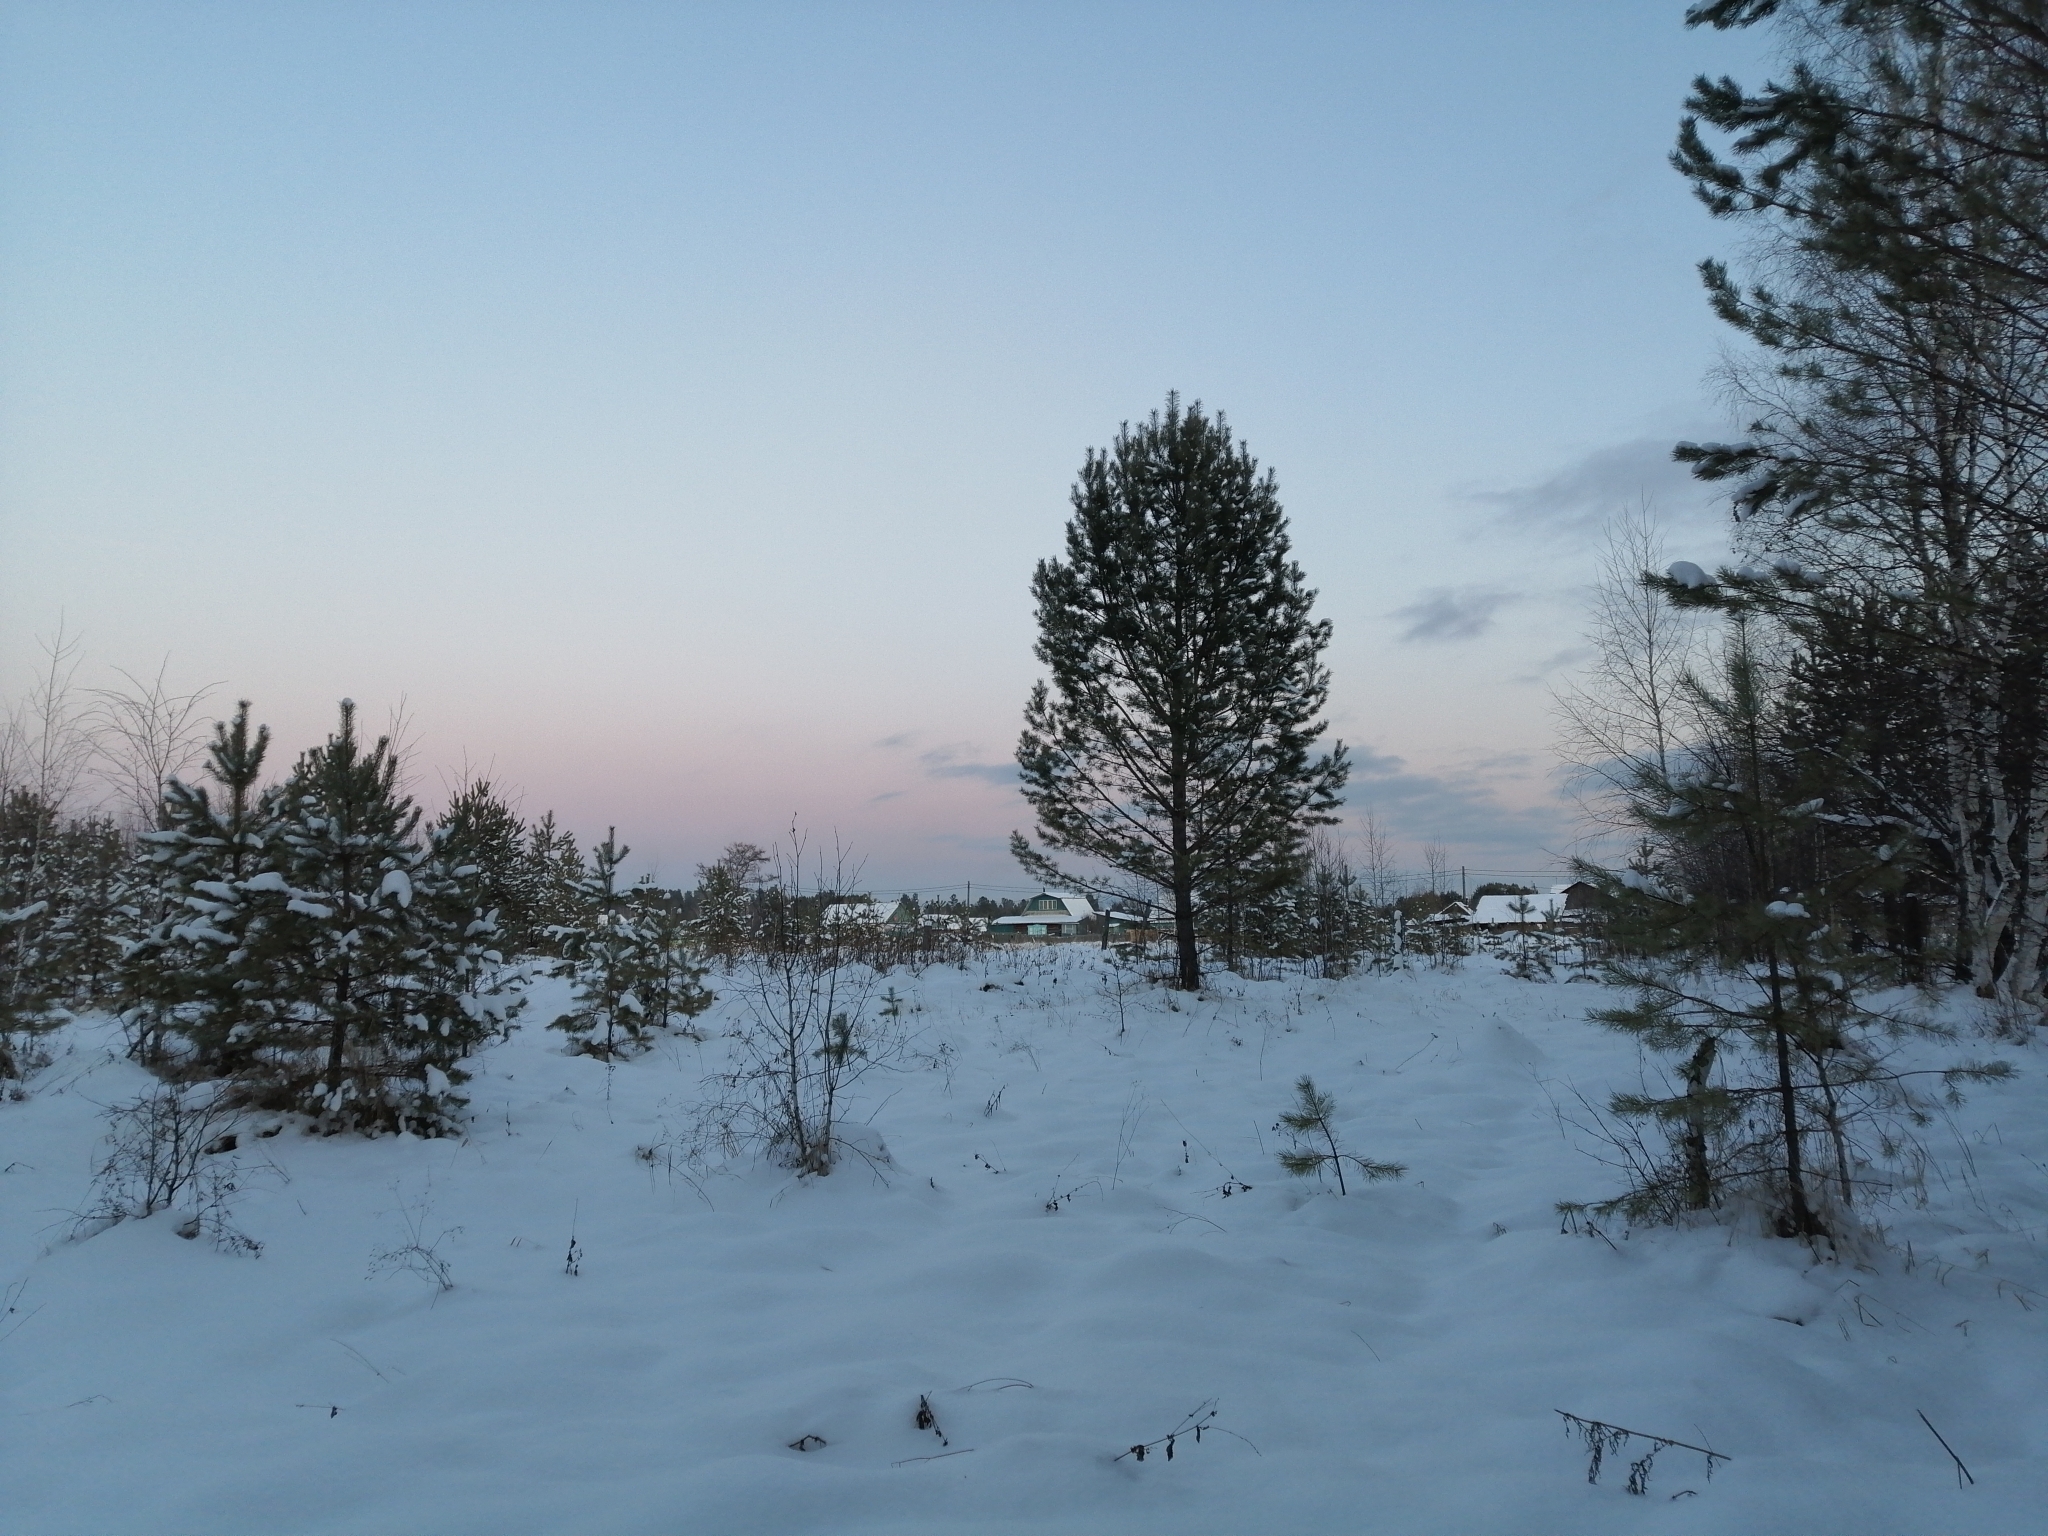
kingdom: Plantae
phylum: Tracheophyta
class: Pinopsida
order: Pinales
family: Pinaceae
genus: Pinus
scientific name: Pinus sylvestris
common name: Scots pine
